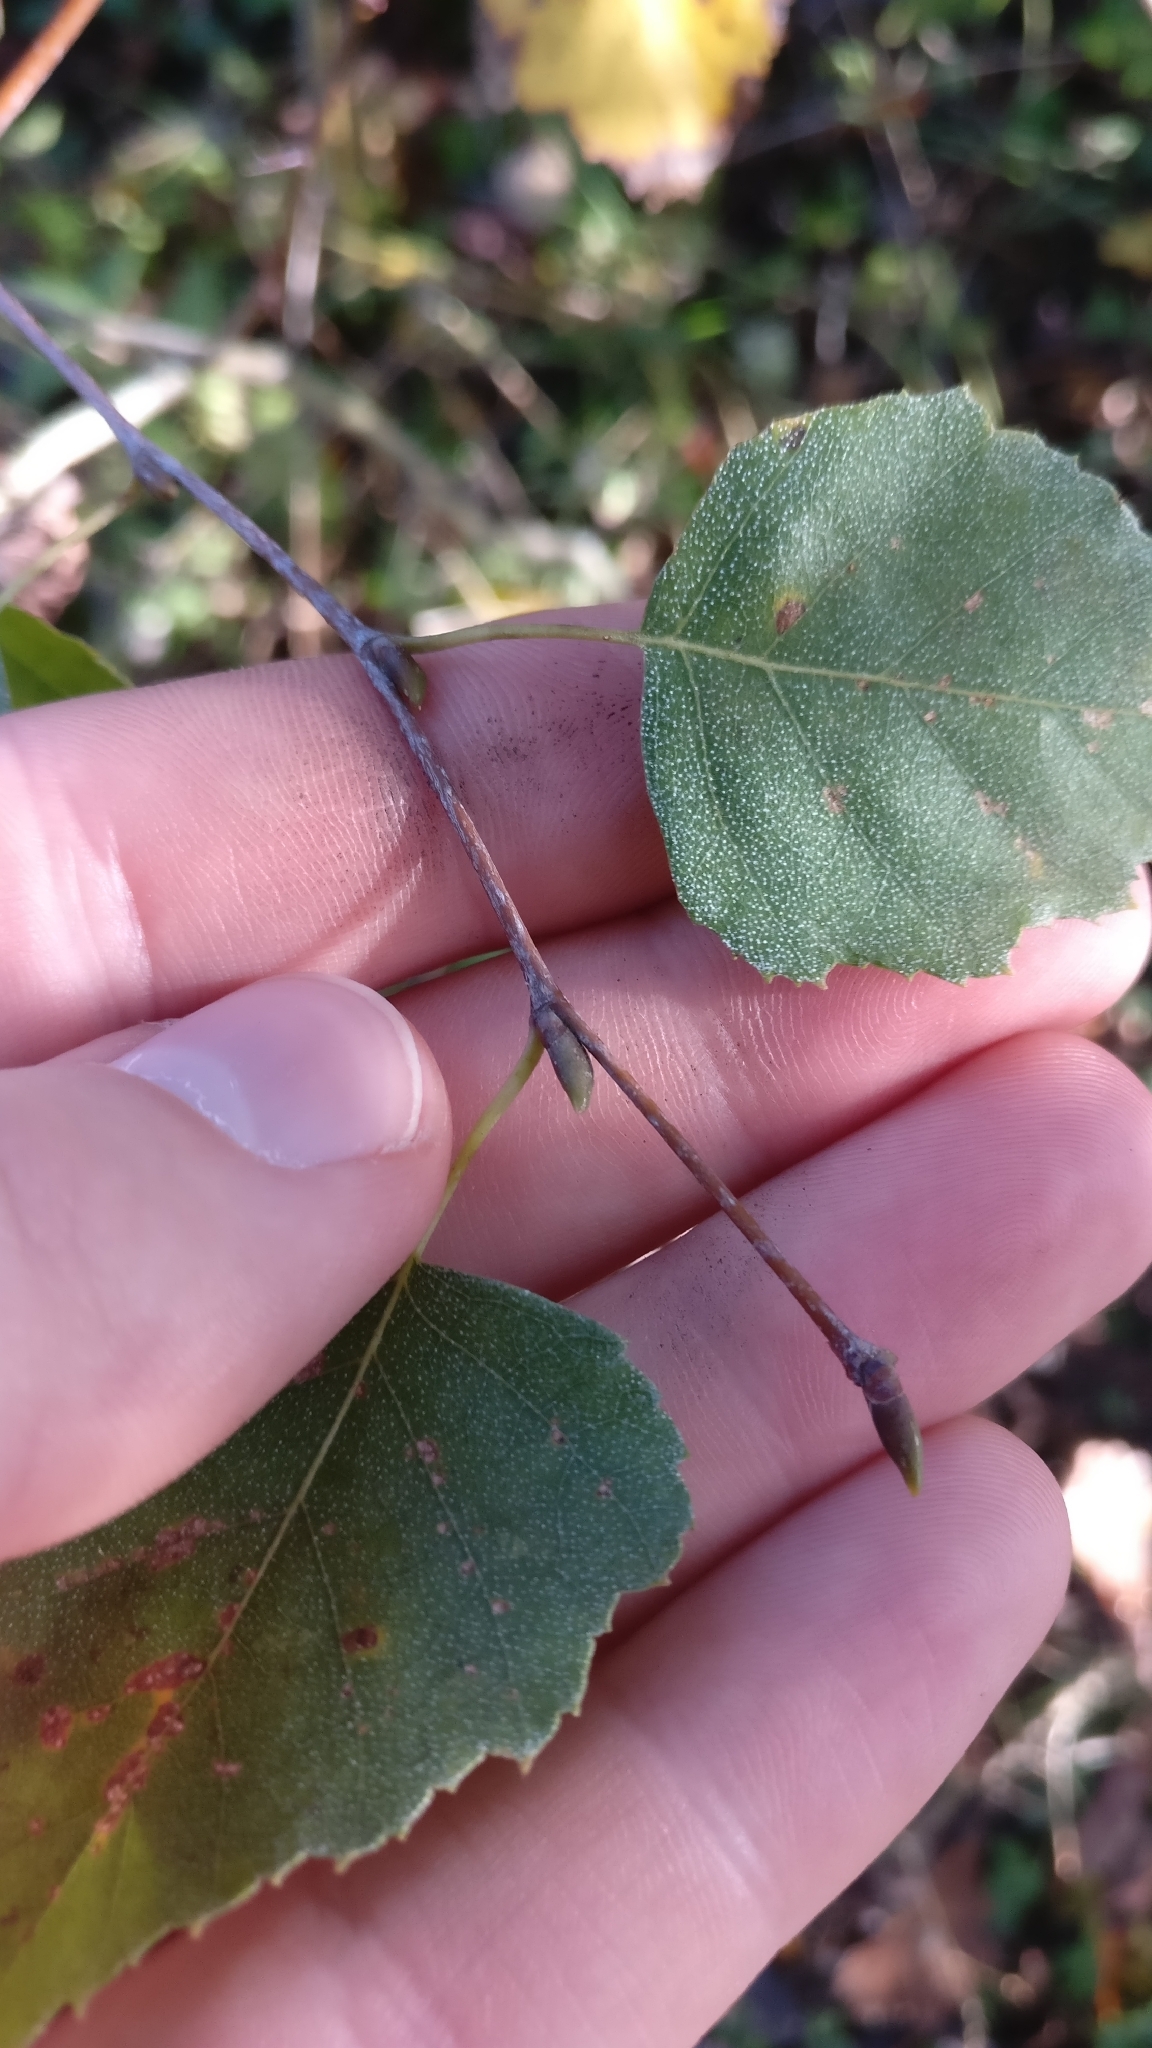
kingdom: Plantae
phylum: Tracheophyta
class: Magnoliopsida
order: Fagales
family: Betulaceae
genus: Betula
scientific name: Betula pendula
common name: Silver birch
